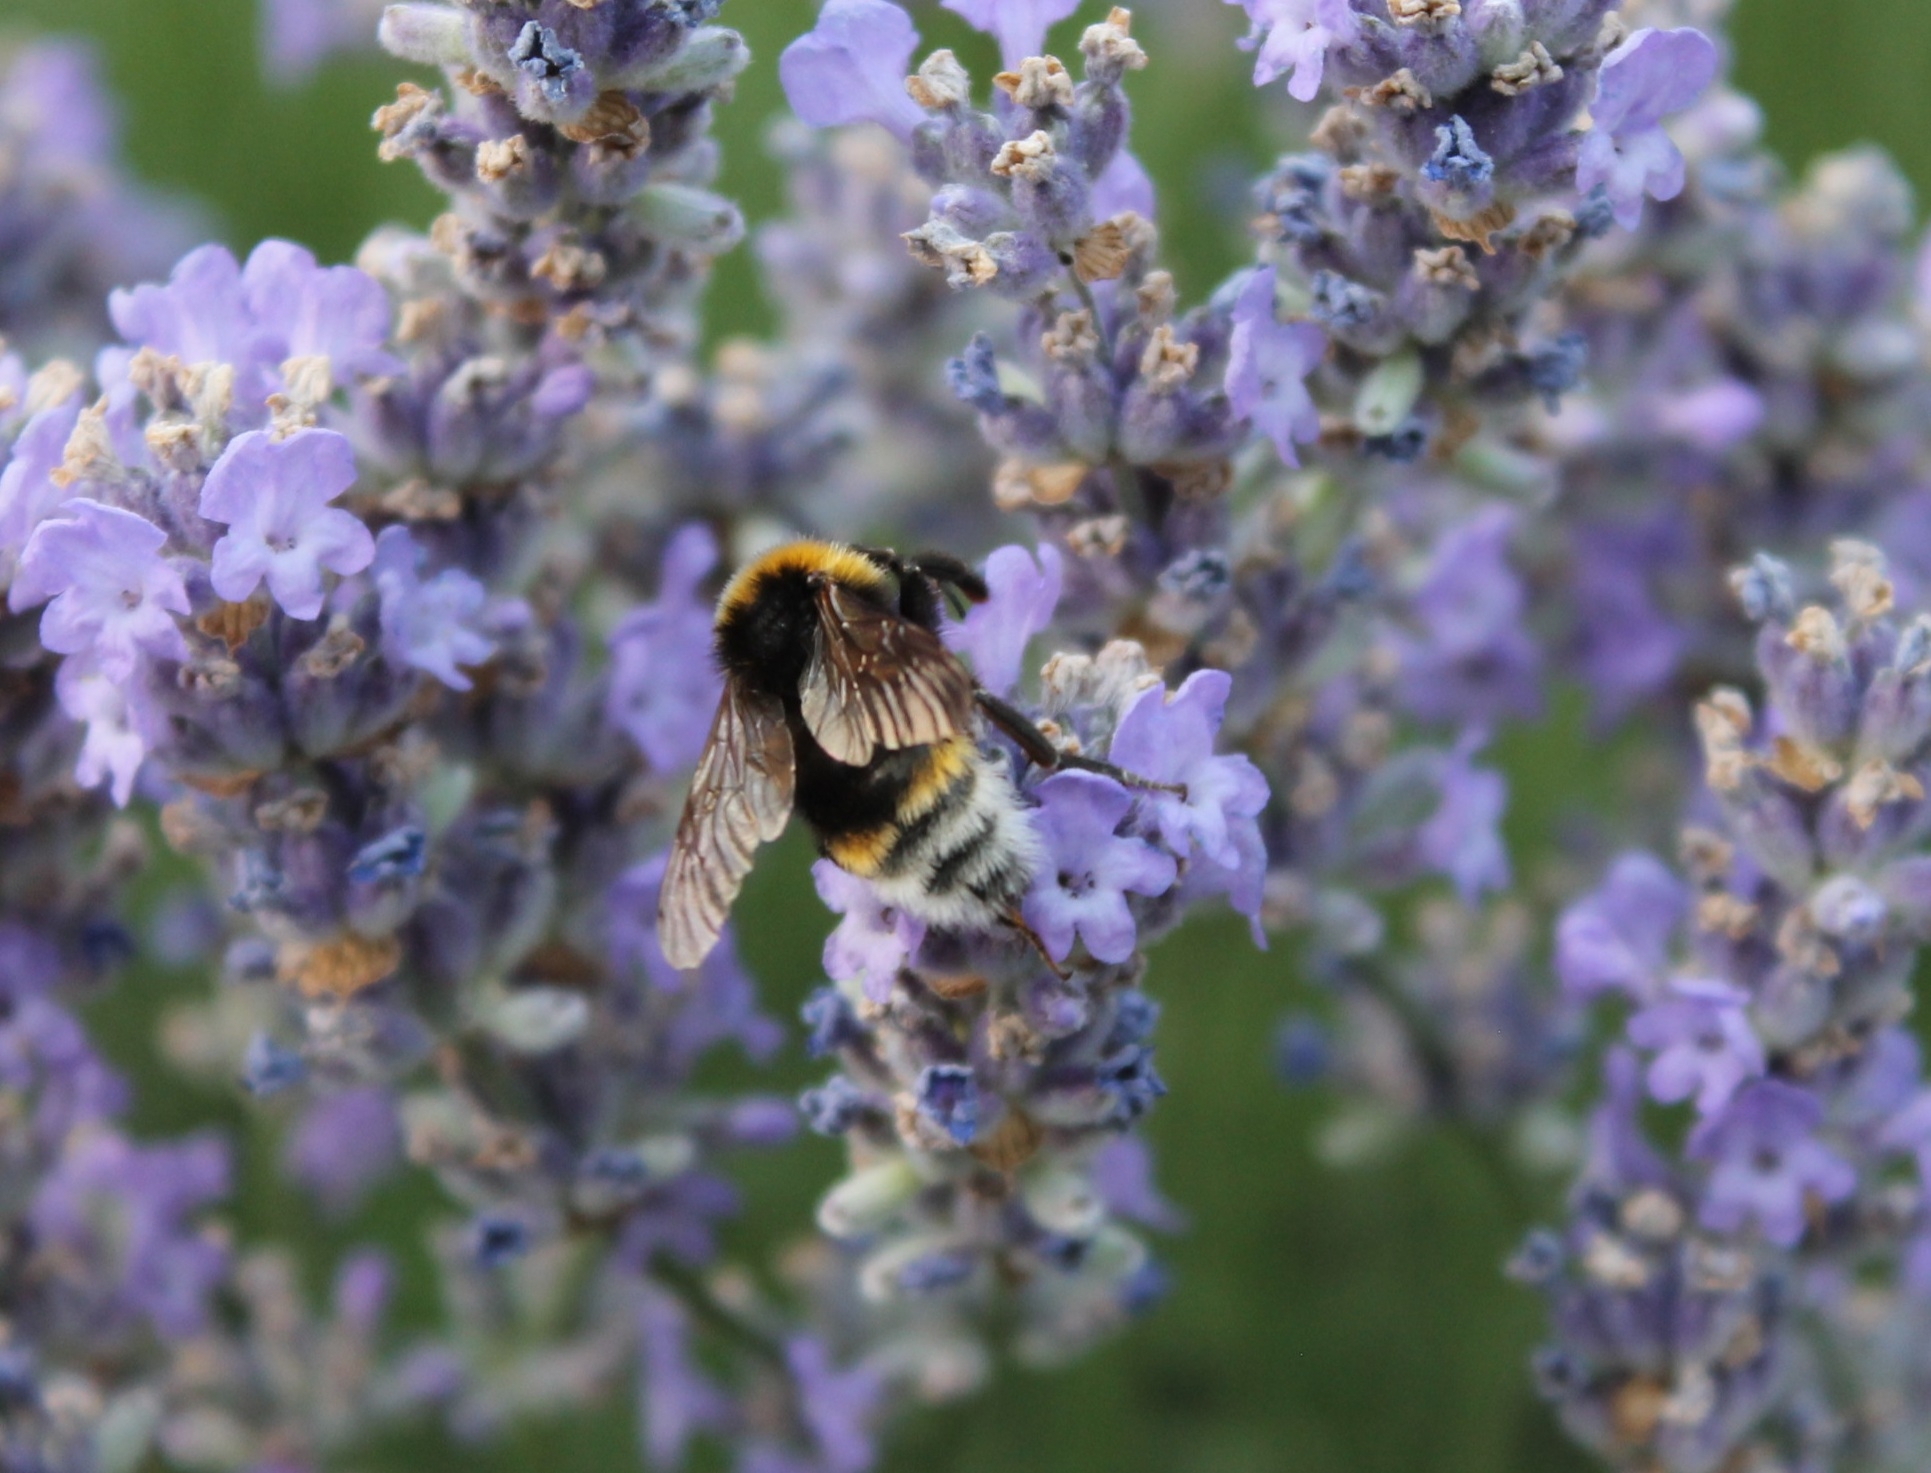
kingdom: Animalia
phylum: Arthropoda
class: Insecta
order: Hymenoptera
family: Apidae
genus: Bombus
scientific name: Bombus vestalis
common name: Vestal cuckoo bee
